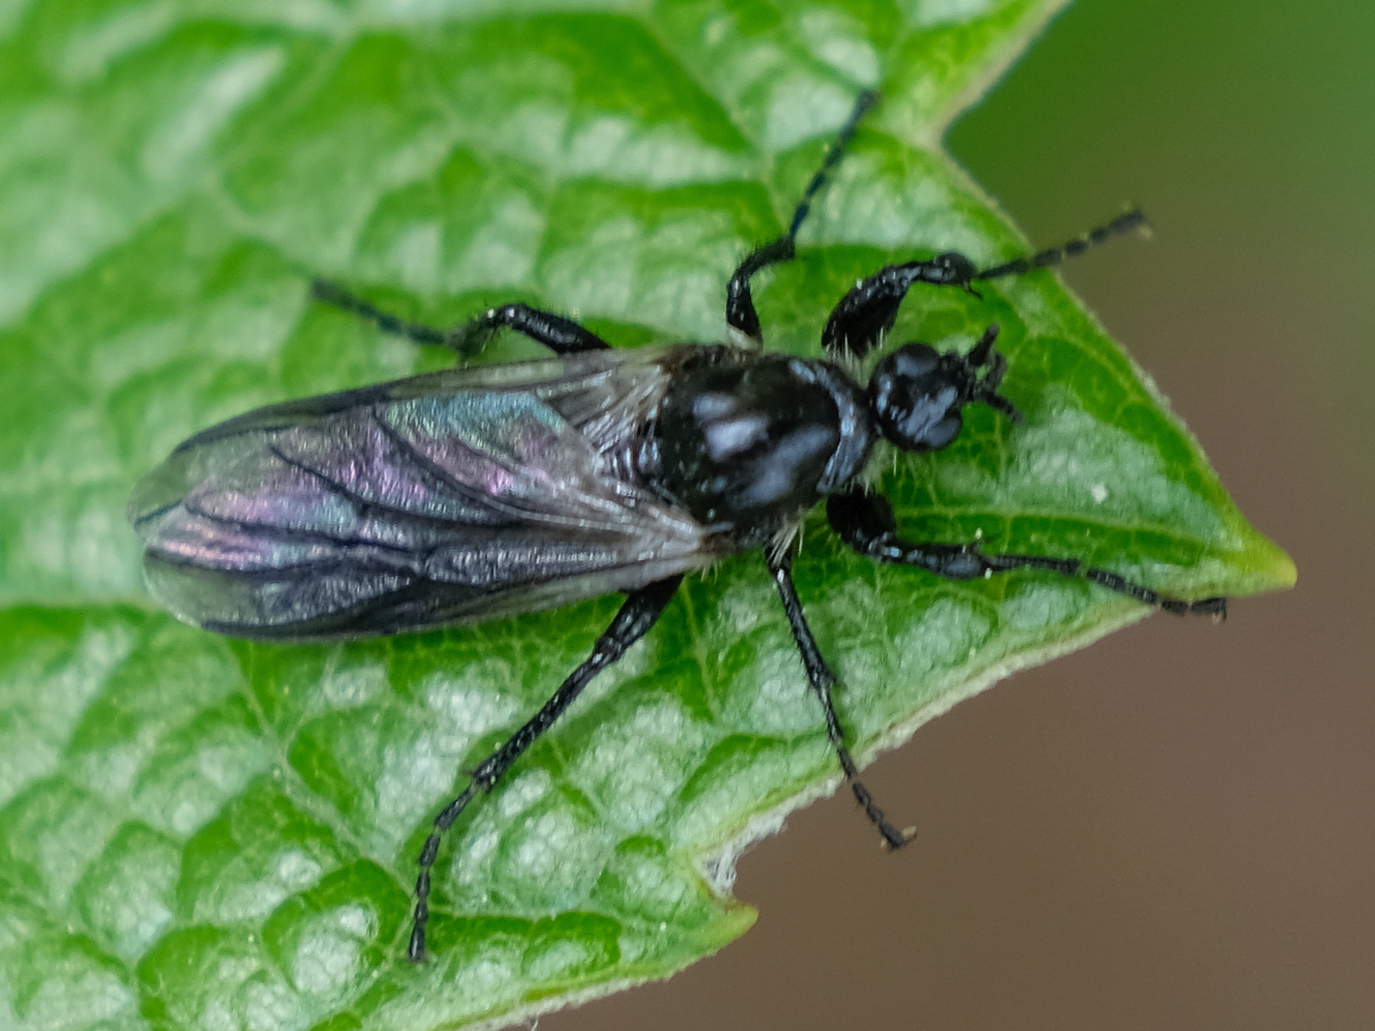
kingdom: Animalia
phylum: Arthropoda
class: Insecta
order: Diptera
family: Bibionidae
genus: Bibio
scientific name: Bibio albipennis
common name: White-winged march fly
